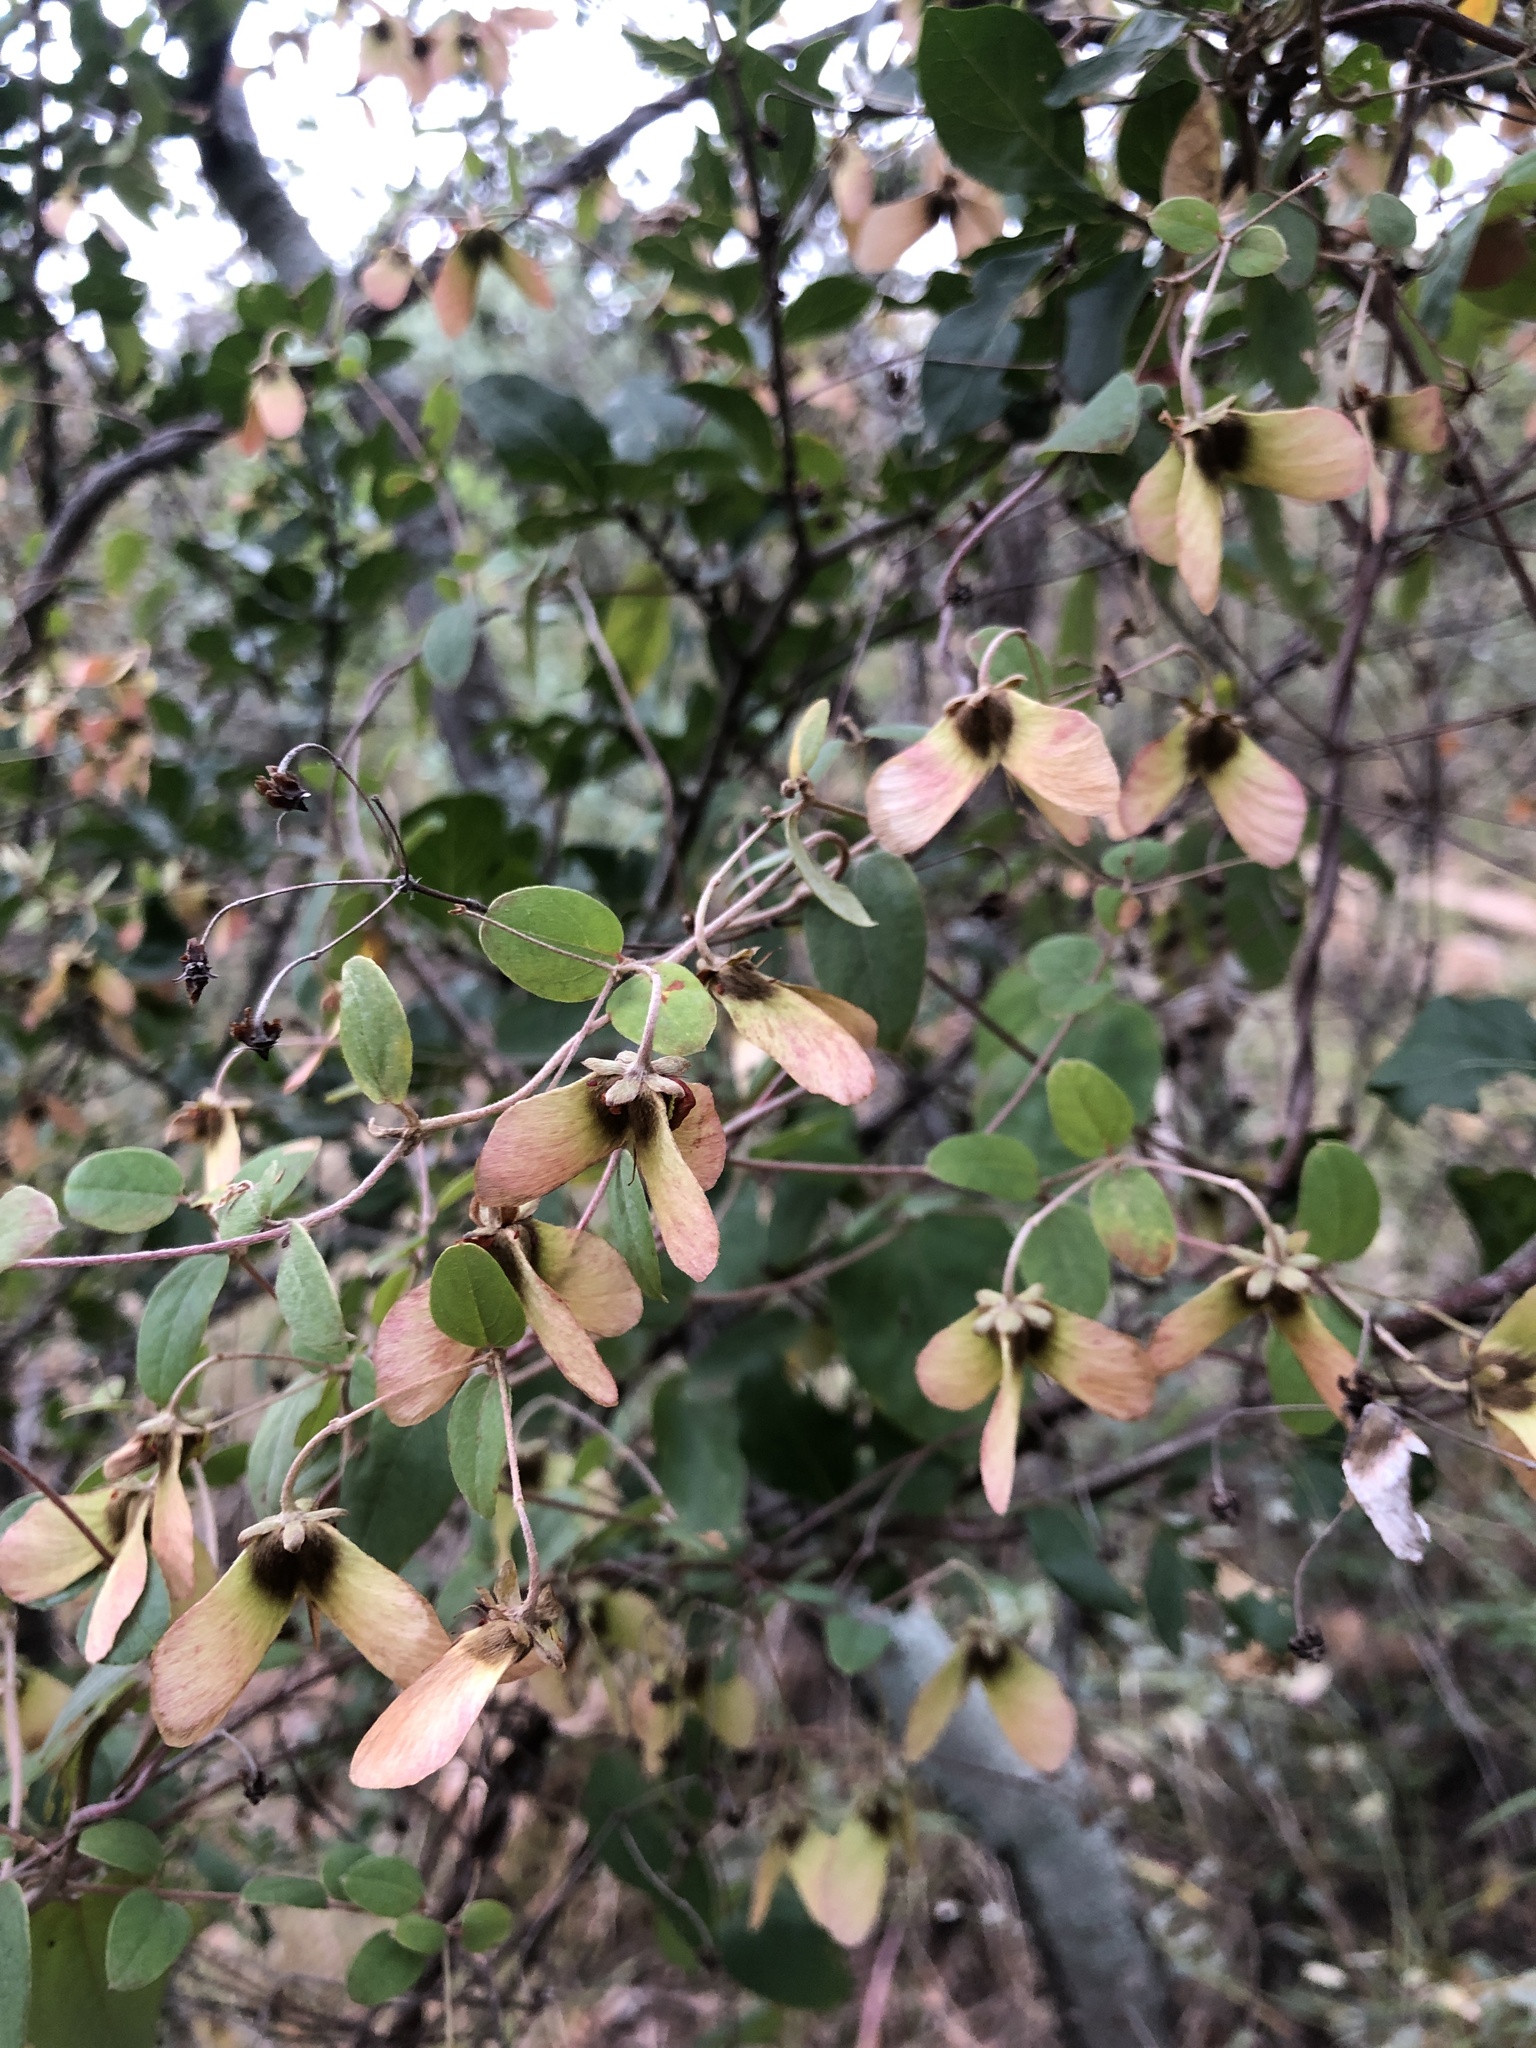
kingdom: Plantae
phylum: Tracheophyta
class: Magnoliopsida
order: Malpighiales
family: Malpighiaceae
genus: Sphedamnocarpus
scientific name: Sphedamnocarpus pruriens
